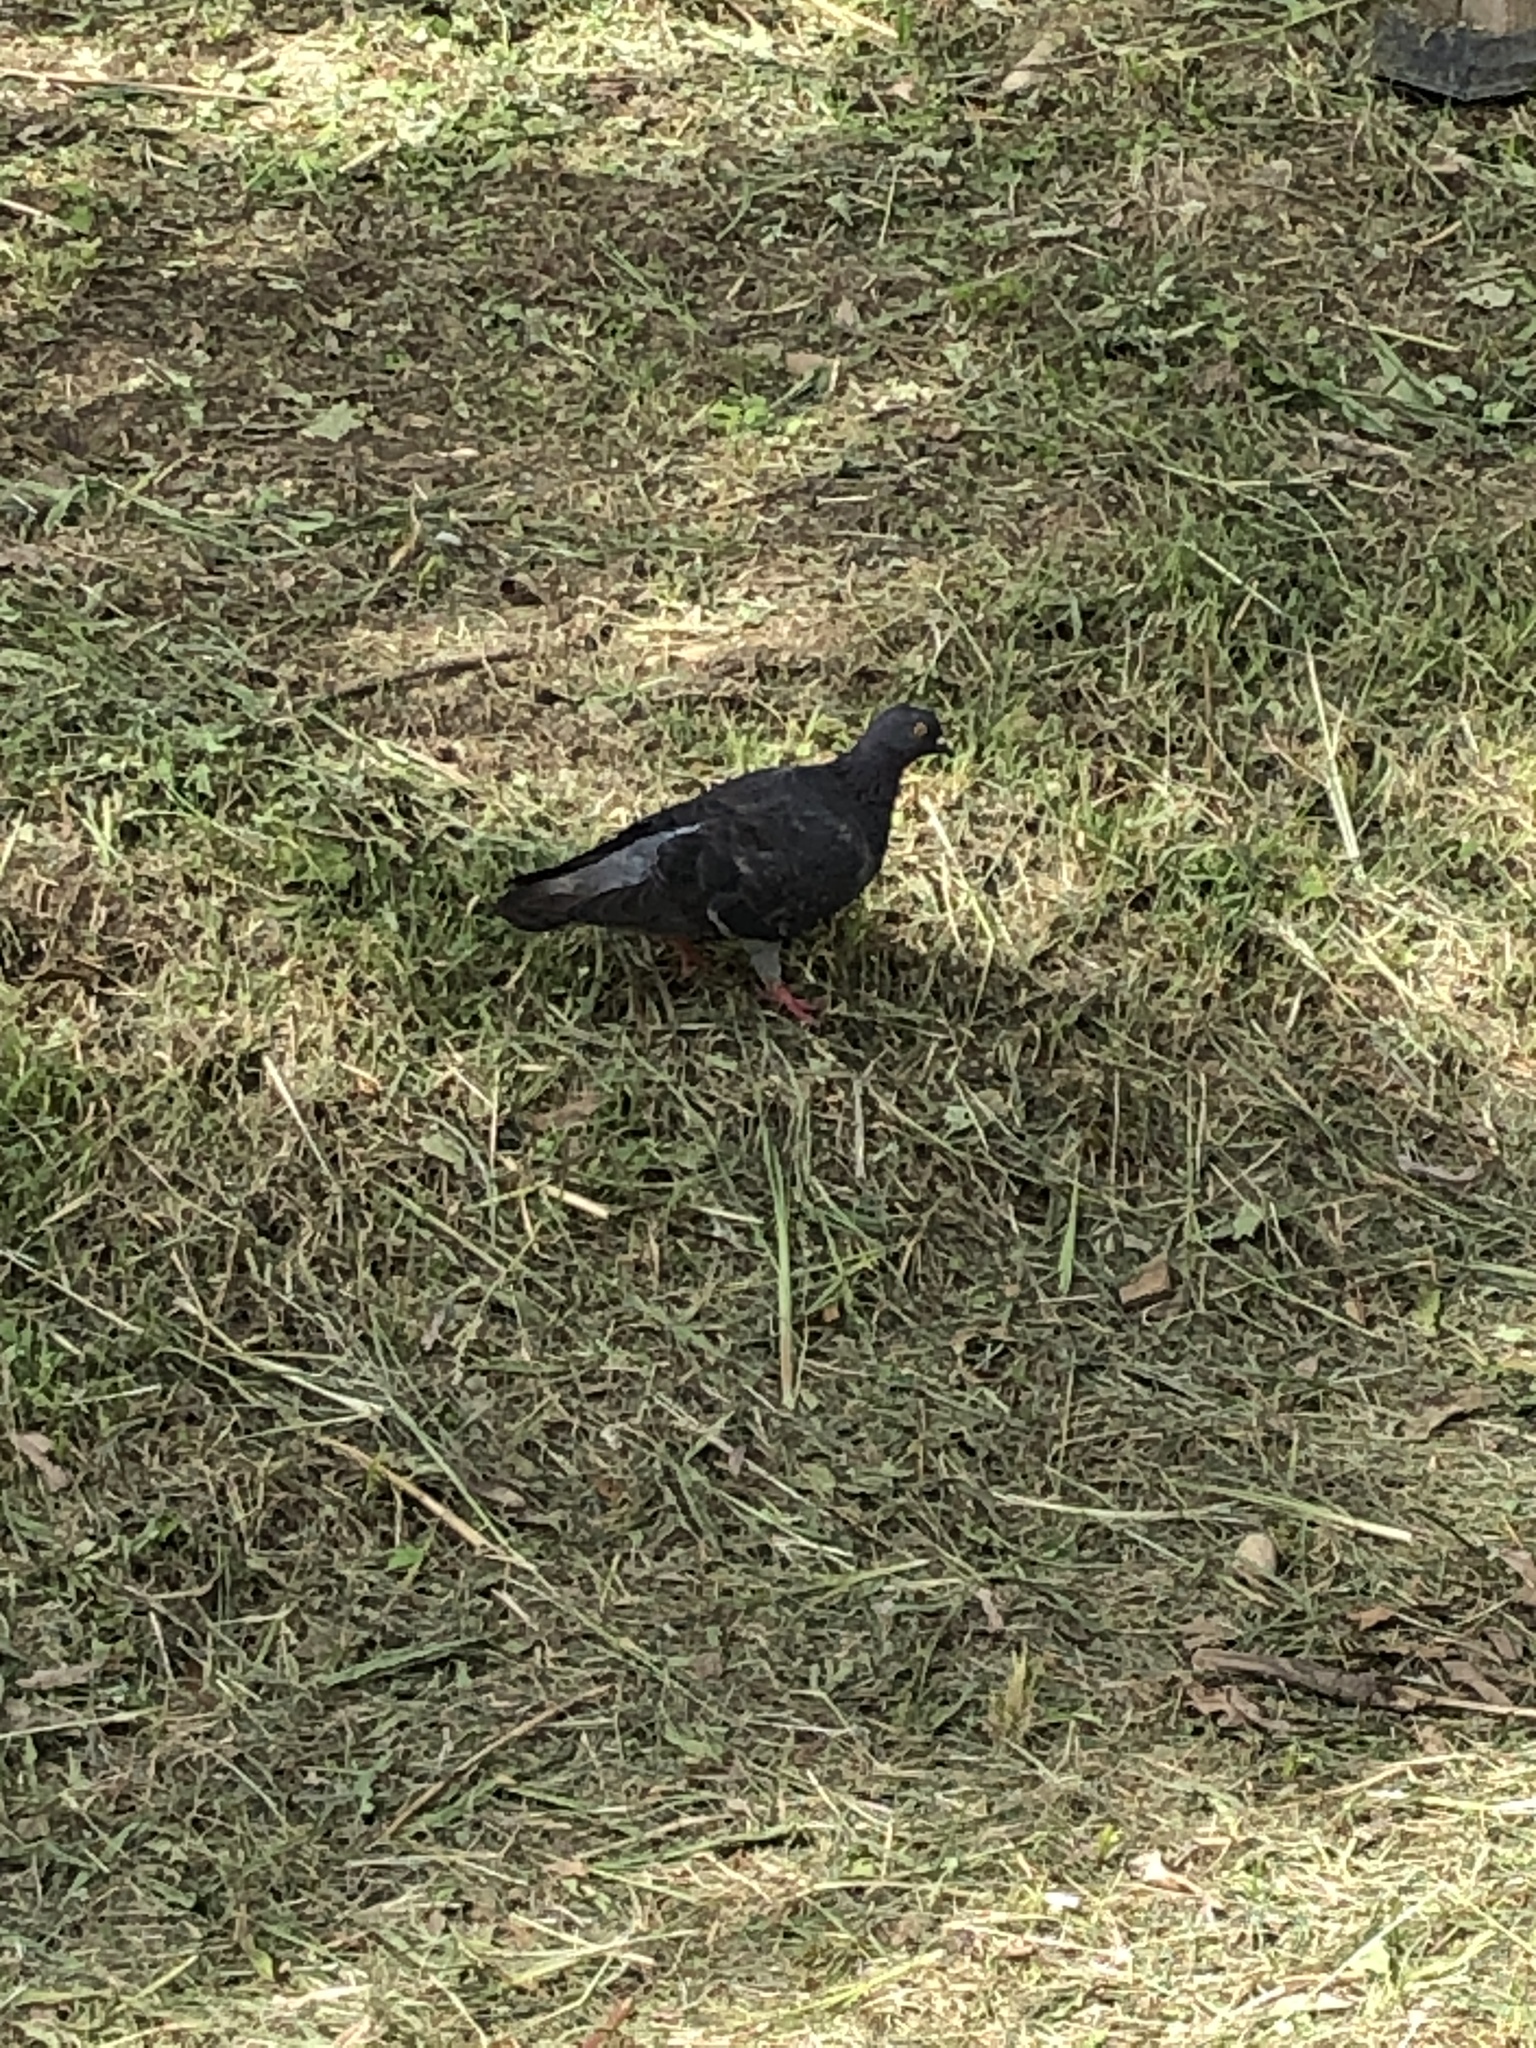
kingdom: Animalia
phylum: Chordata
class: Aves
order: Columbiformes
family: Columbidae
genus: Columba
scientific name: Columba livia
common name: Rock pigeon
